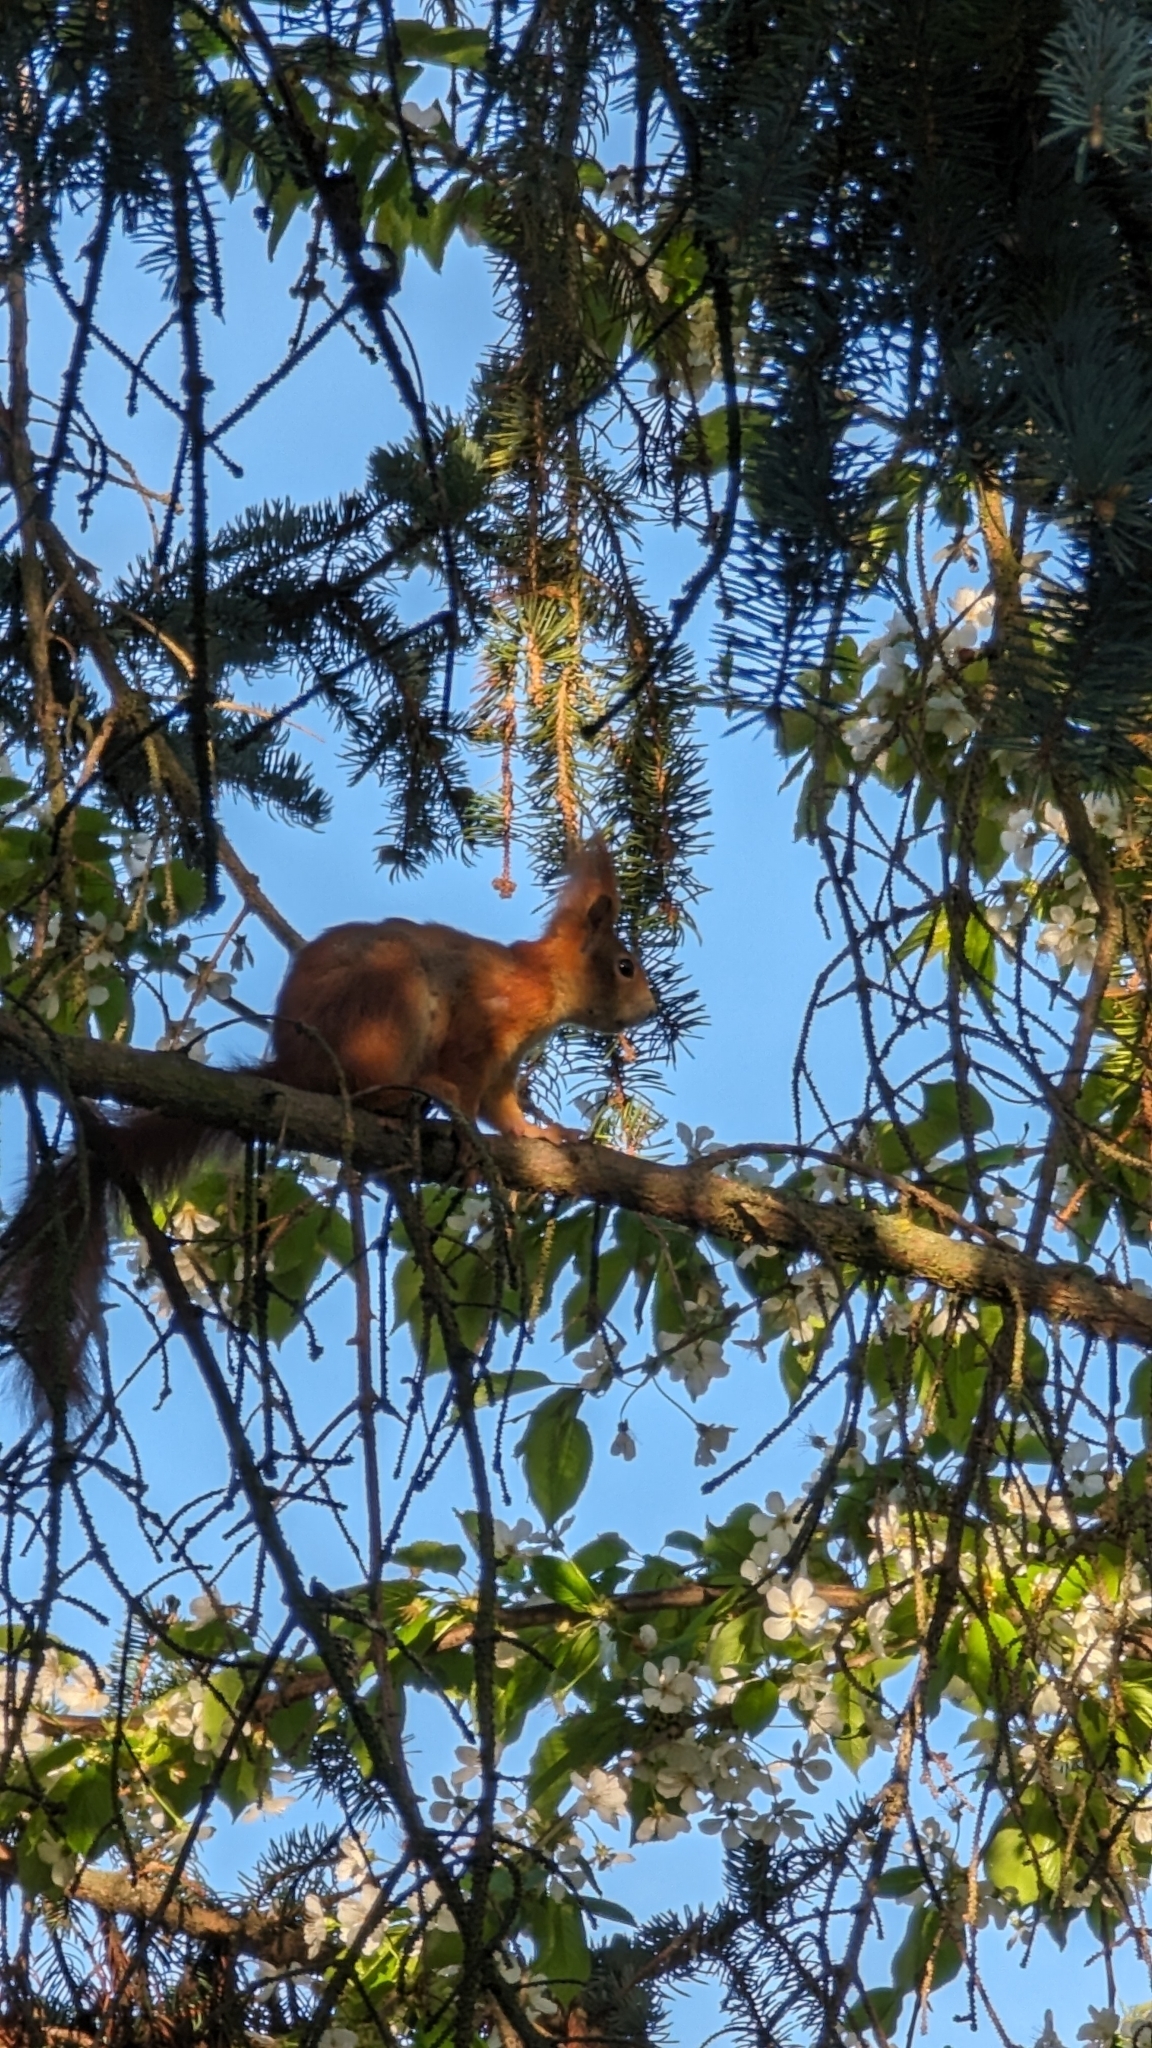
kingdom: Animalia
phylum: Chordata
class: Mammalia
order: Rodentia
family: Sciuridae
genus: Sciurus
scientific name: Sciurus vulgaris
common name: Eurasian red squirrel
